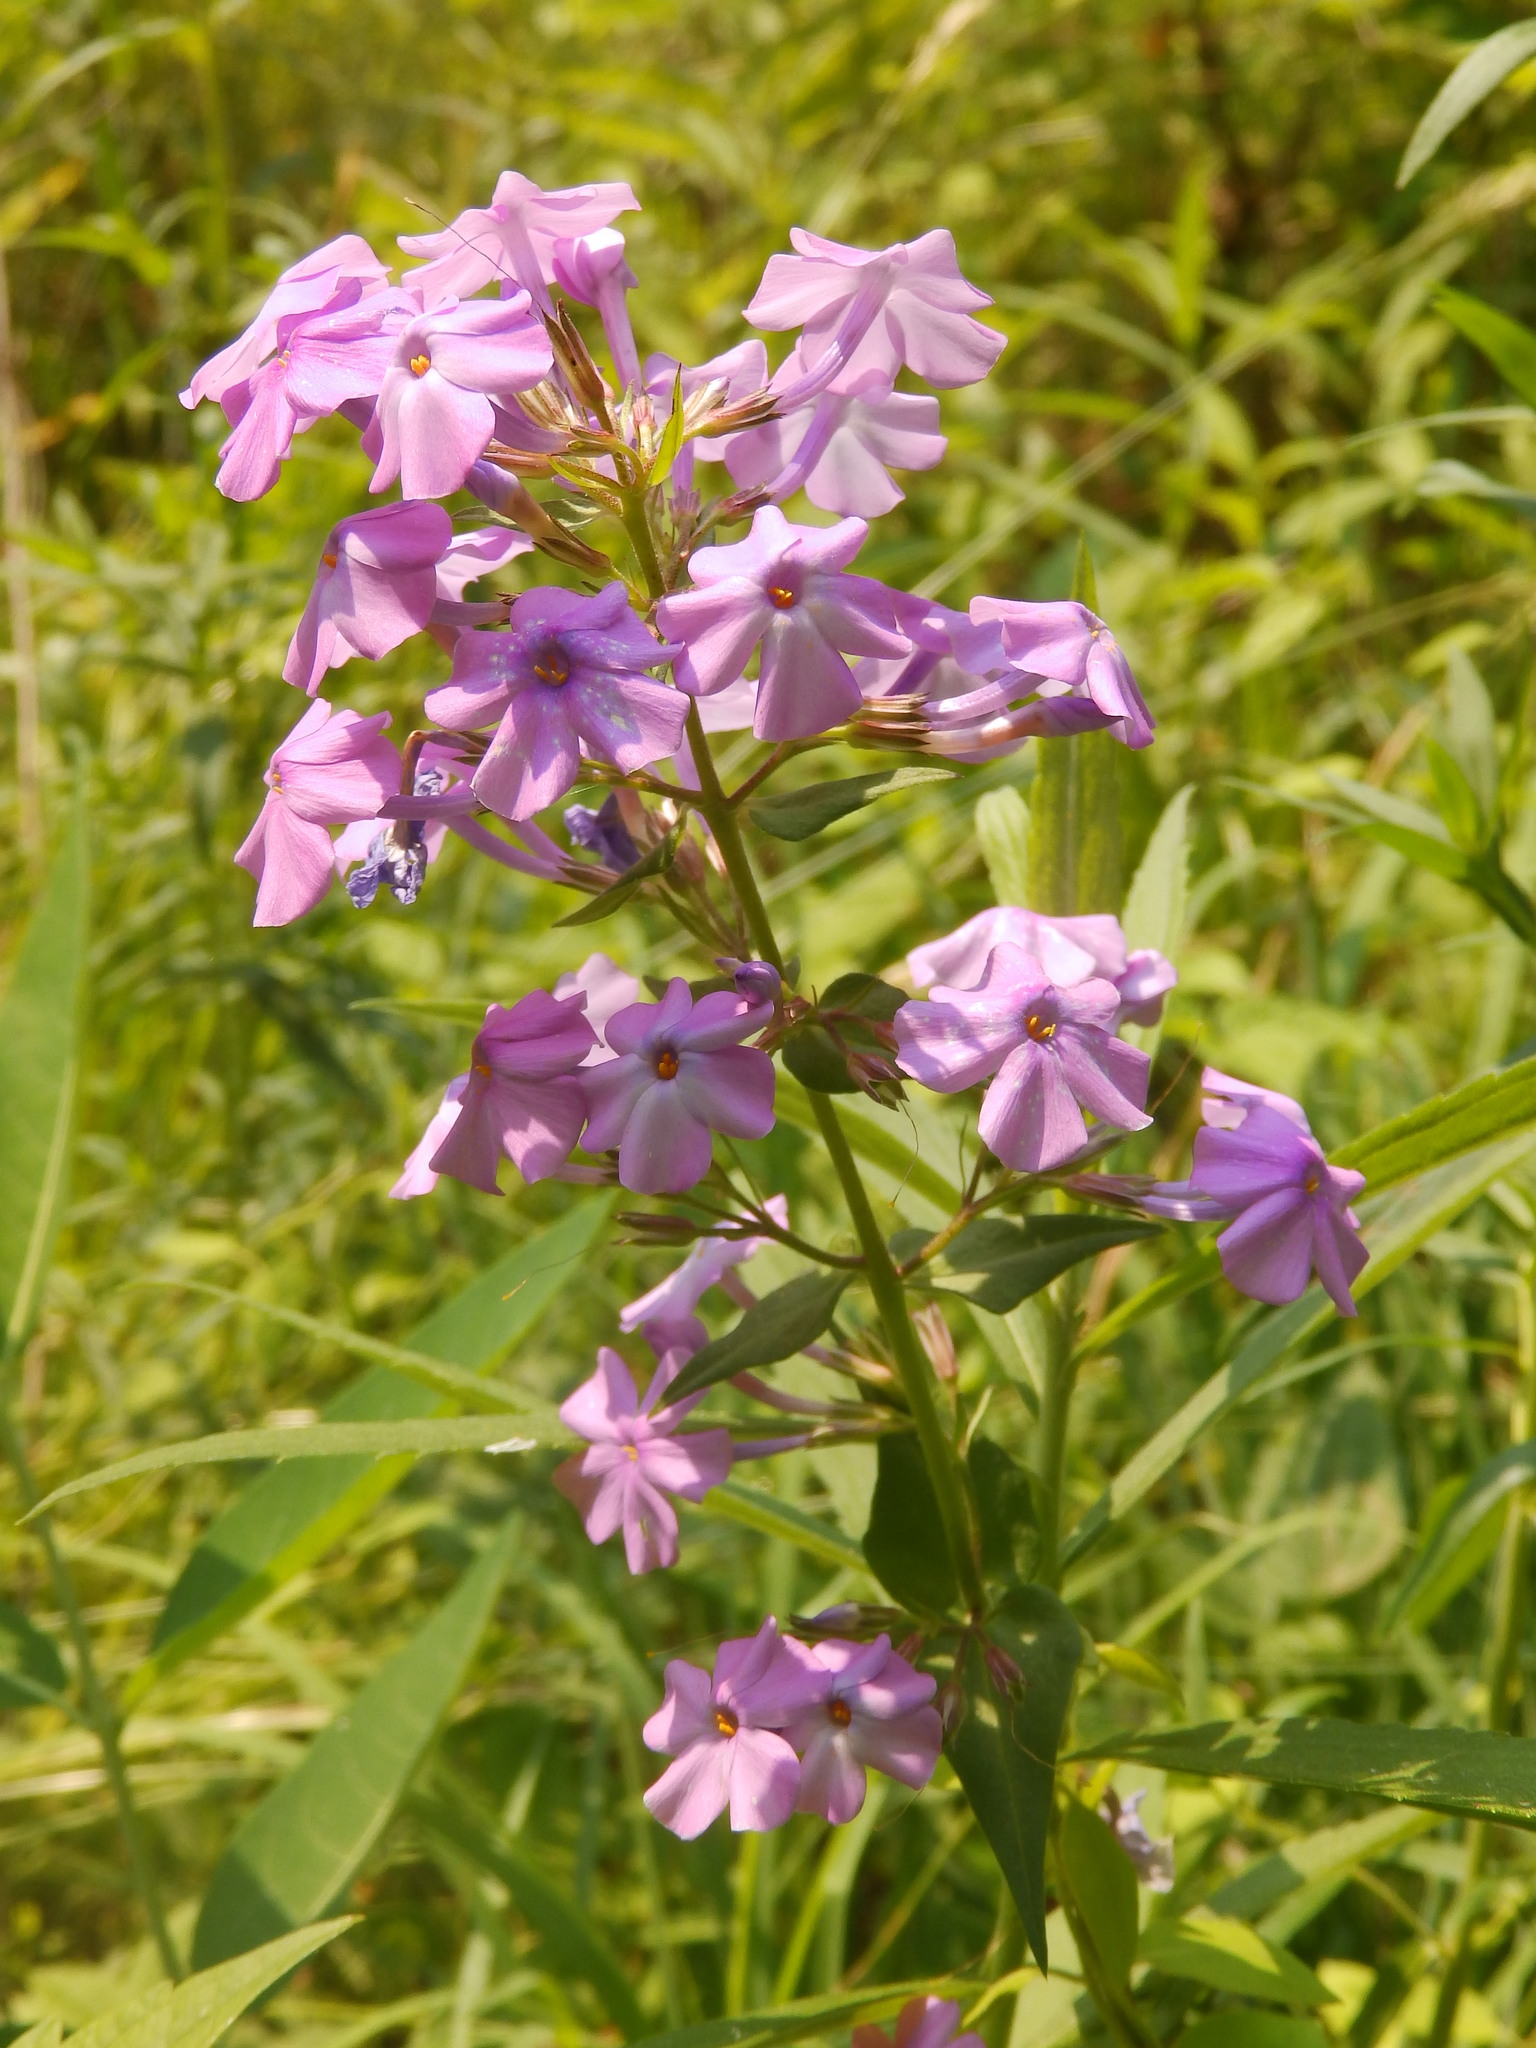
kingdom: Plantae
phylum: Tracheophyta
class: Magnoliopsida
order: Ericales
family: Polemoniaceae
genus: Phlox
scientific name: Phlox maculata
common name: Meadow phlox
